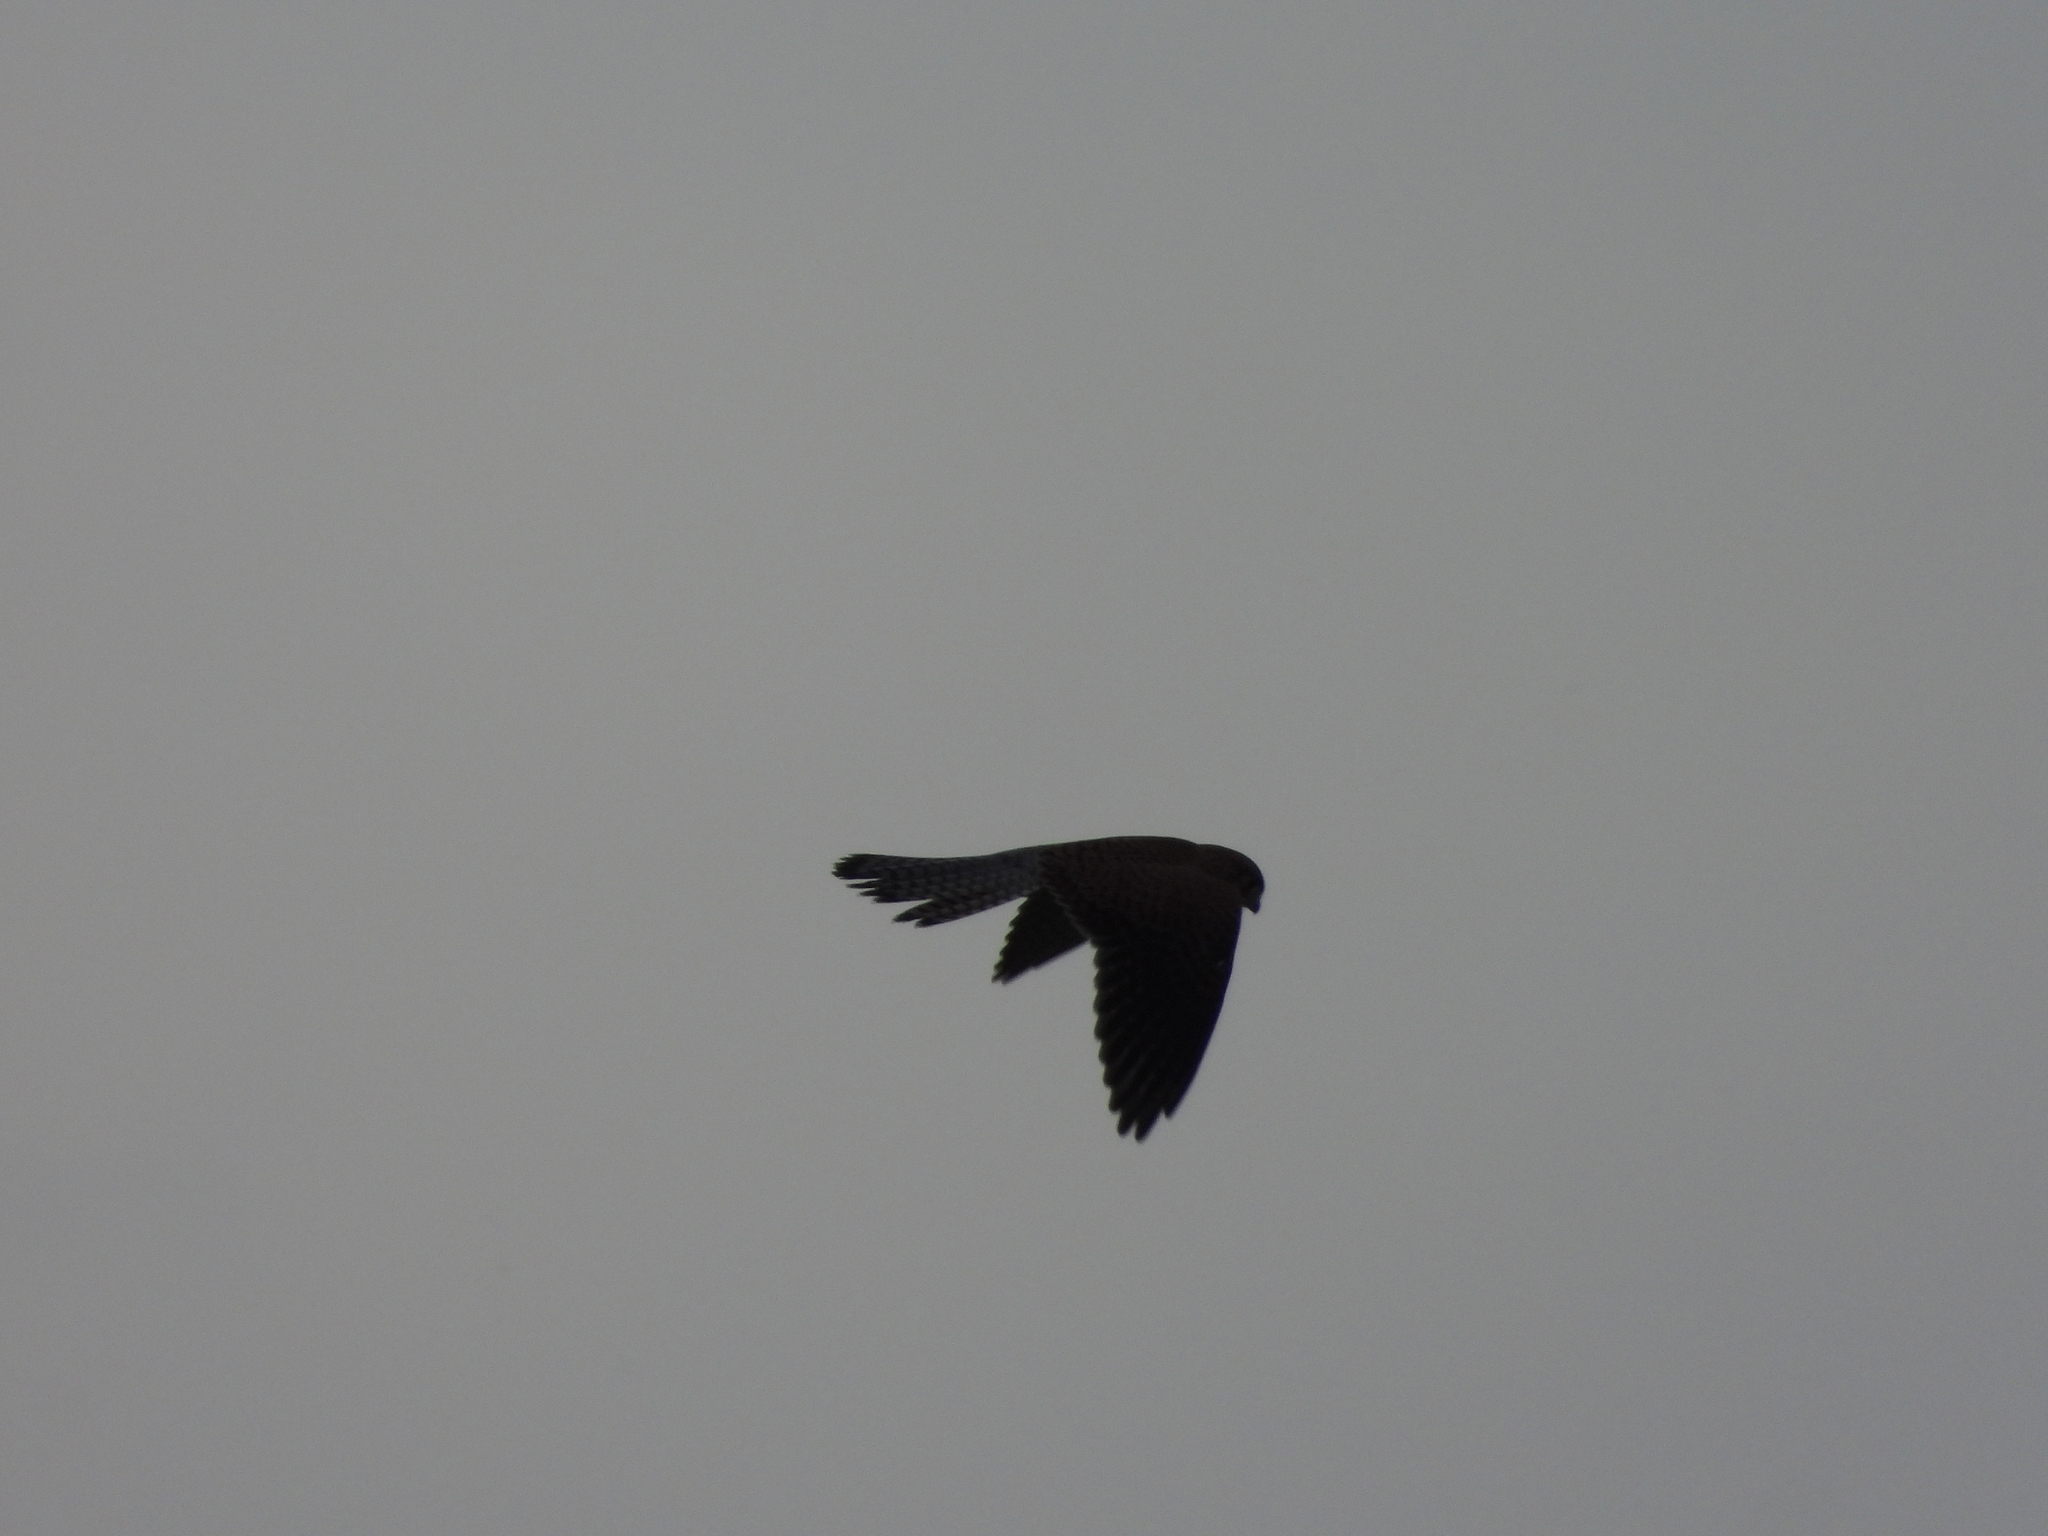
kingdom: Animalia
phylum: Chordata
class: Aves
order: Falconiformes
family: Falconidae
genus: Falco
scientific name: Falco tinnunculus
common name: Common kestrel
